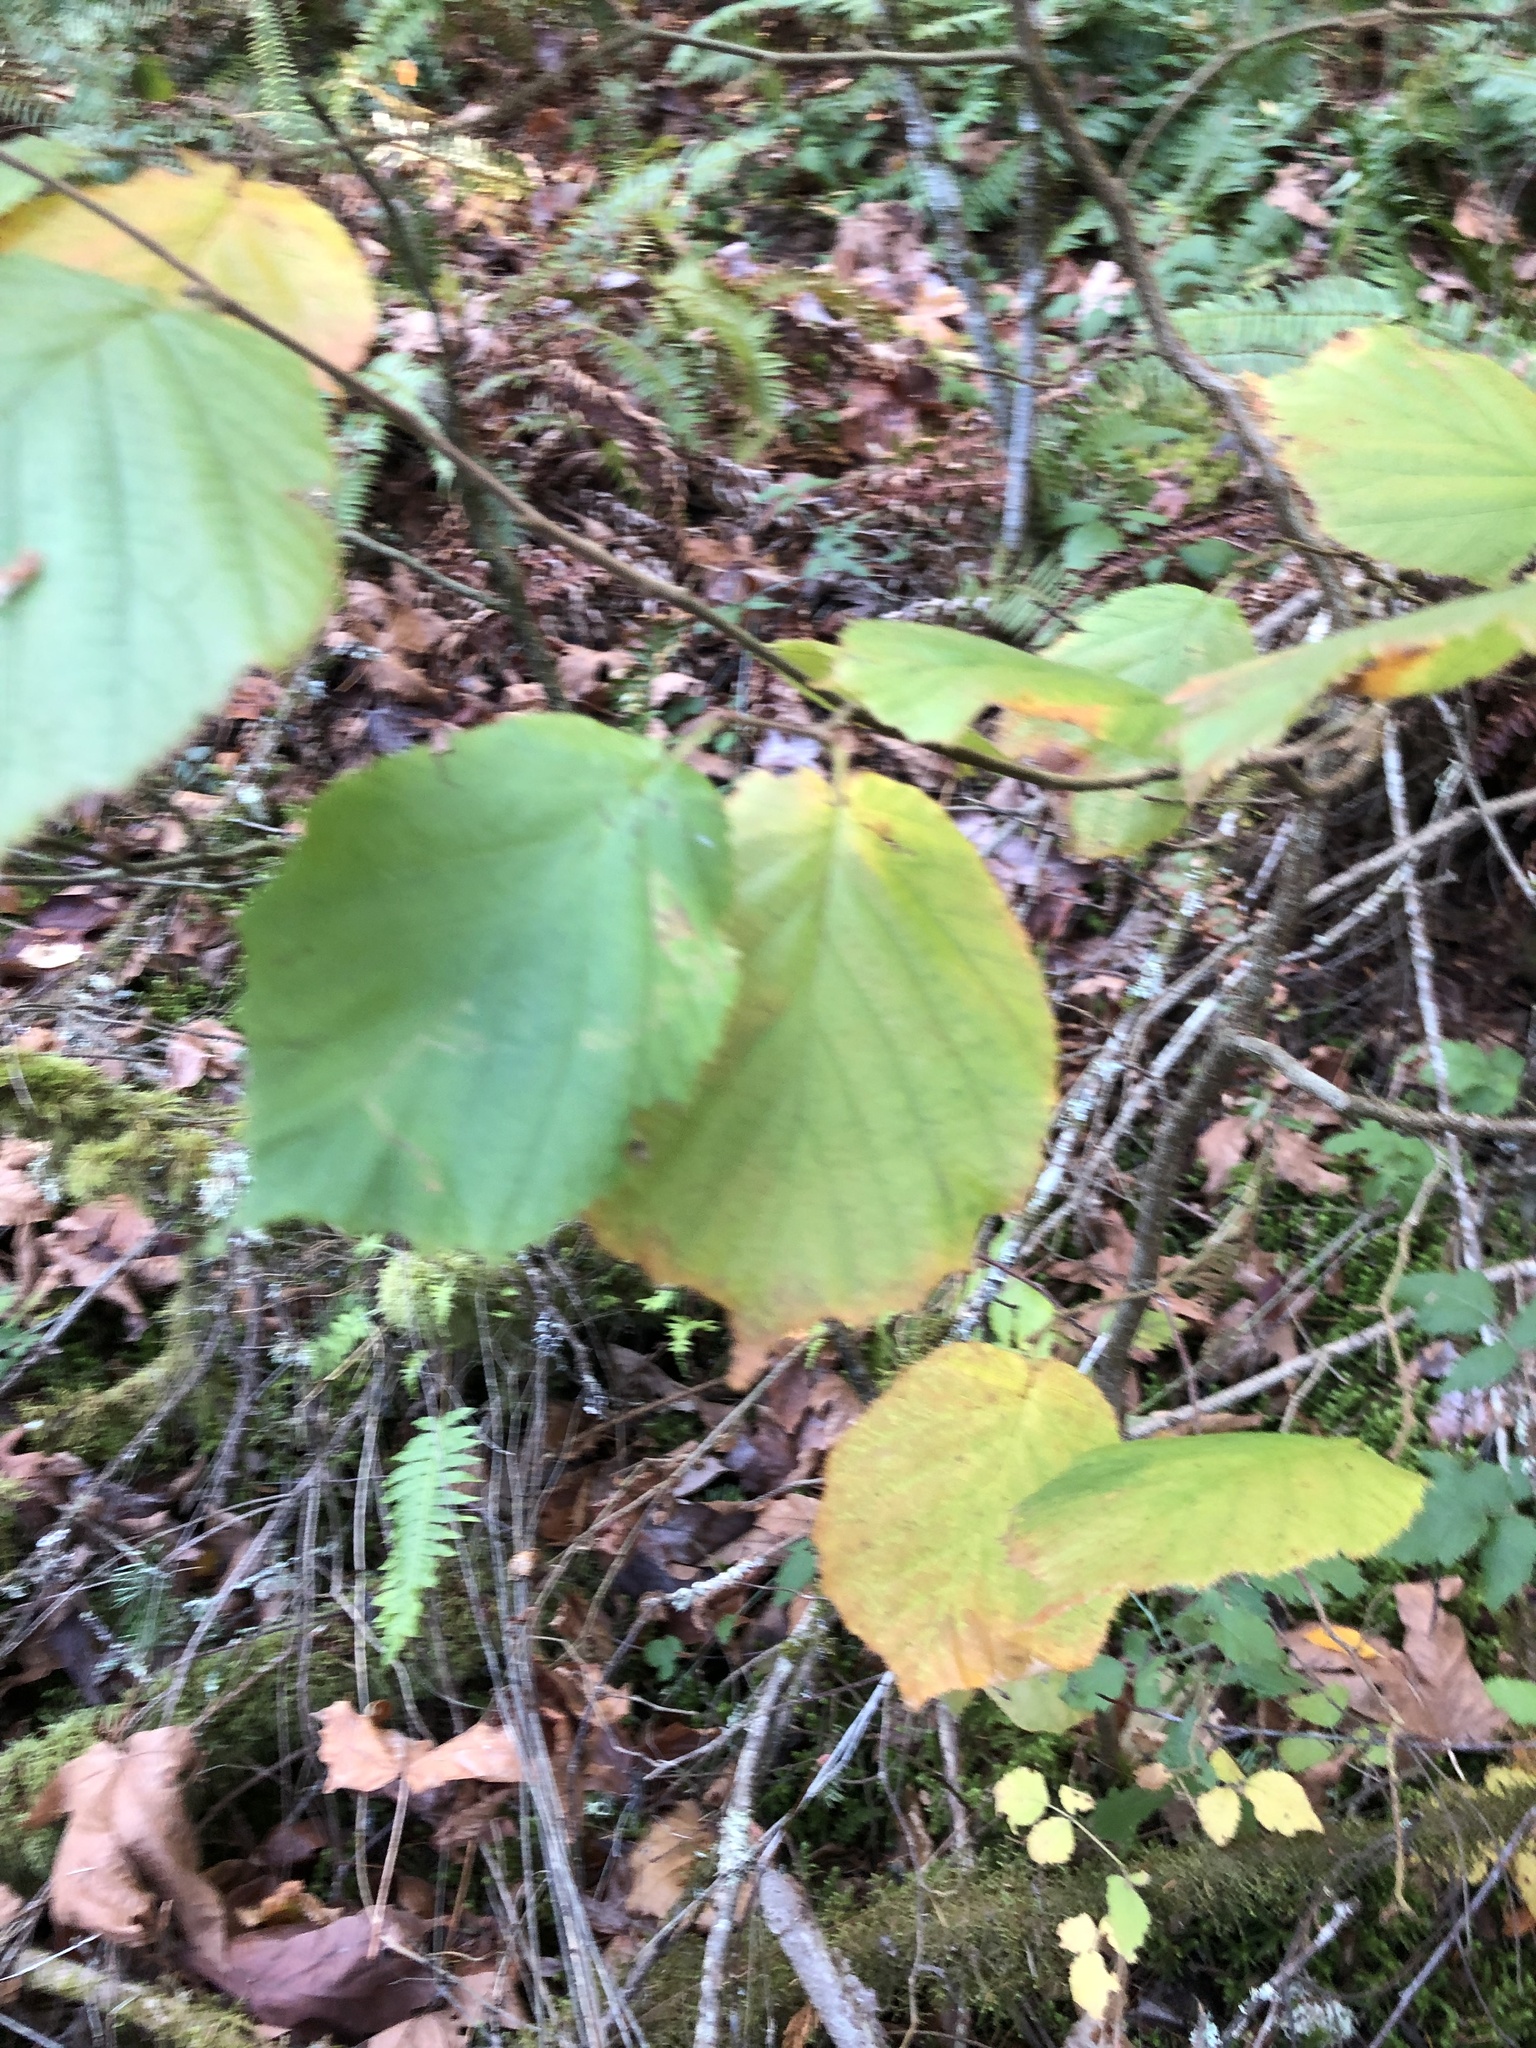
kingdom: Plantae
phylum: Tracheophyta
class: Magnoliopsida
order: Fagales
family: Betulaceae
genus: Corylus
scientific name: Corylus cornuta
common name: Beaked hazel
